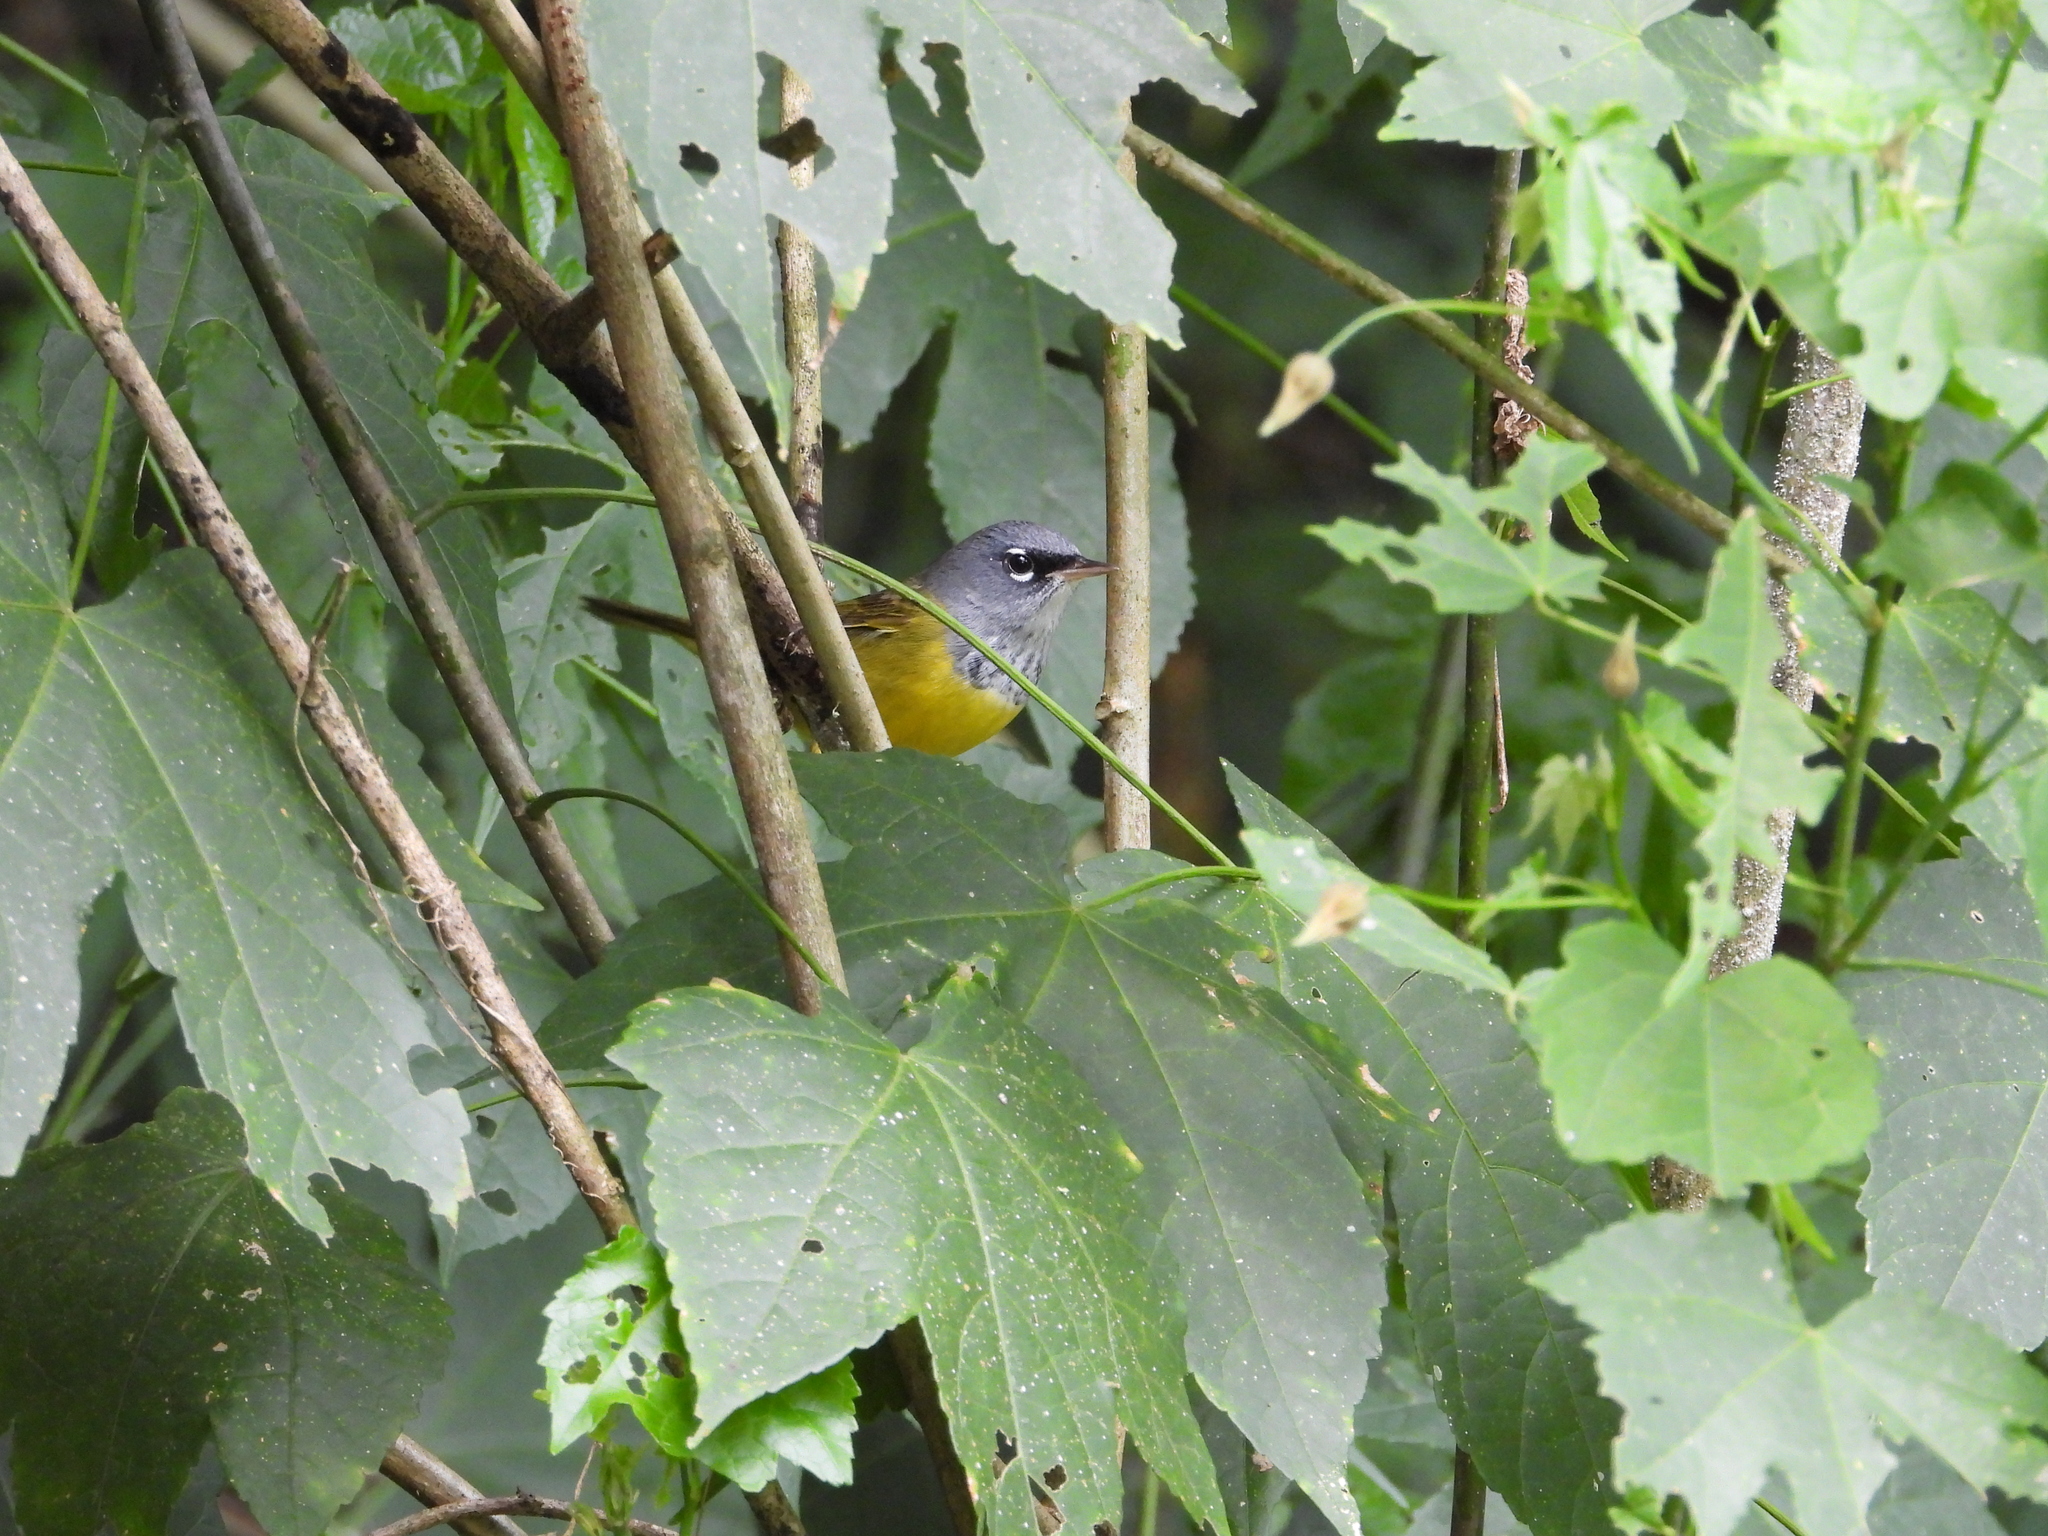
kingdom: Animalia
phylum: Chordata
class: Aves
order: Passeriformes
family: Parulidae
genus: Geothlypis
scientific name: Geothlypis tolmiei
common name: Macgillivray's warbler
